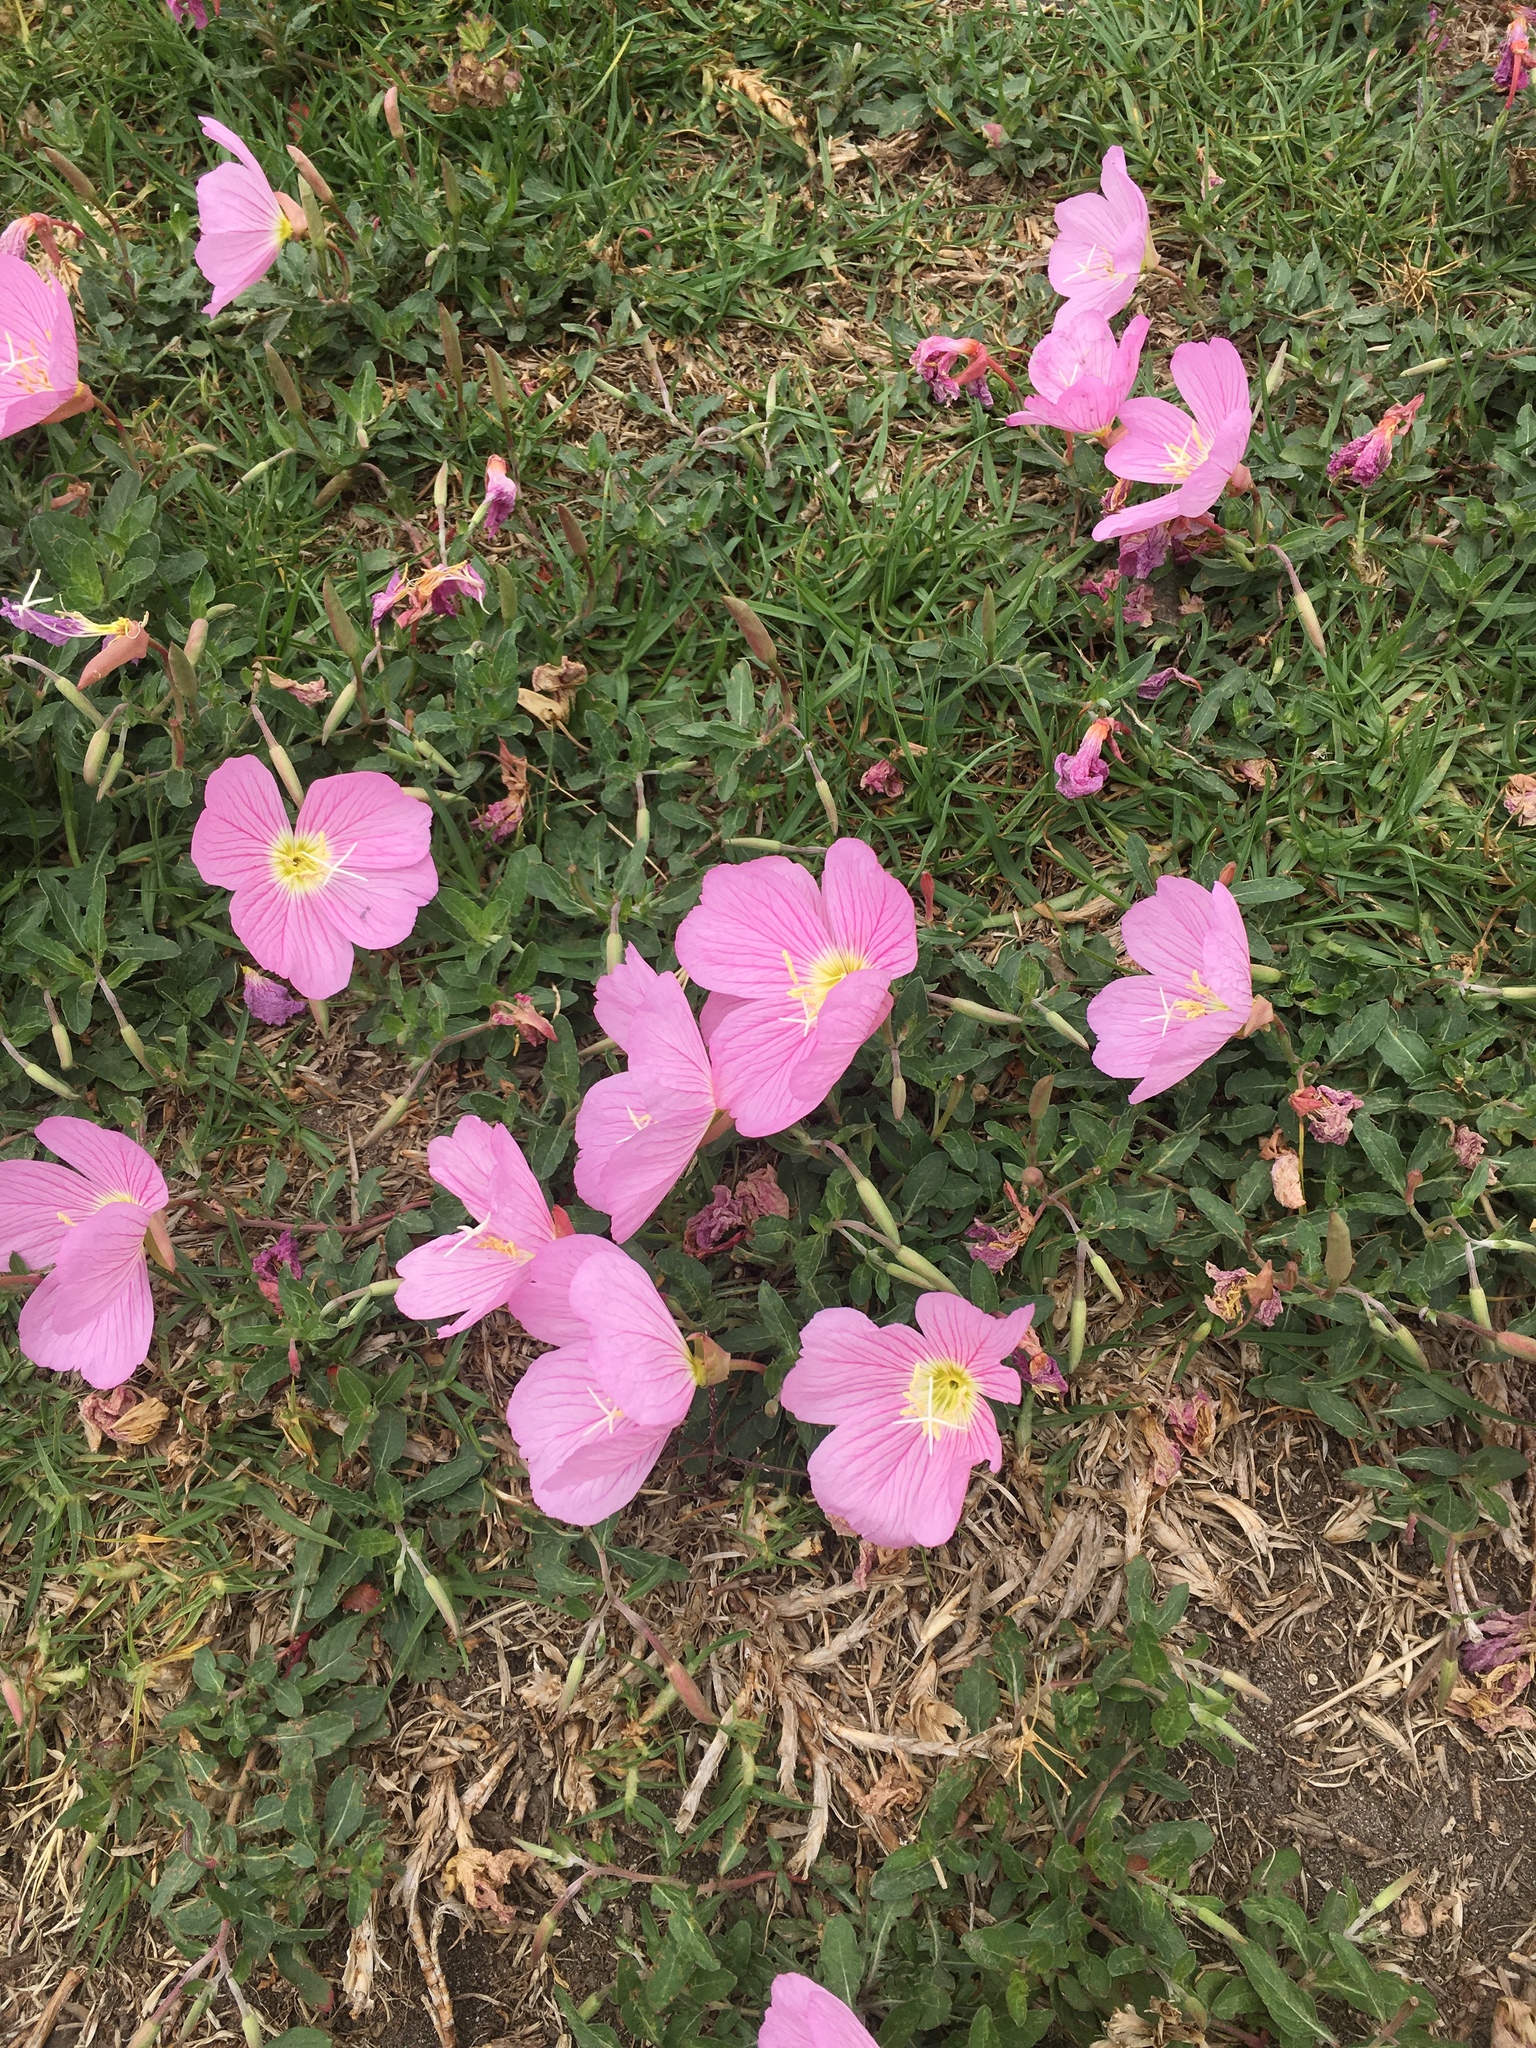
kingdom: Plantae
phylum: Tracheophyta
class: Magnoliopsida
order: Myrtales
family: Onagraceae
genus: Oenothera
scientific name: Oenothera speciosa
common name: White evening-primrose
